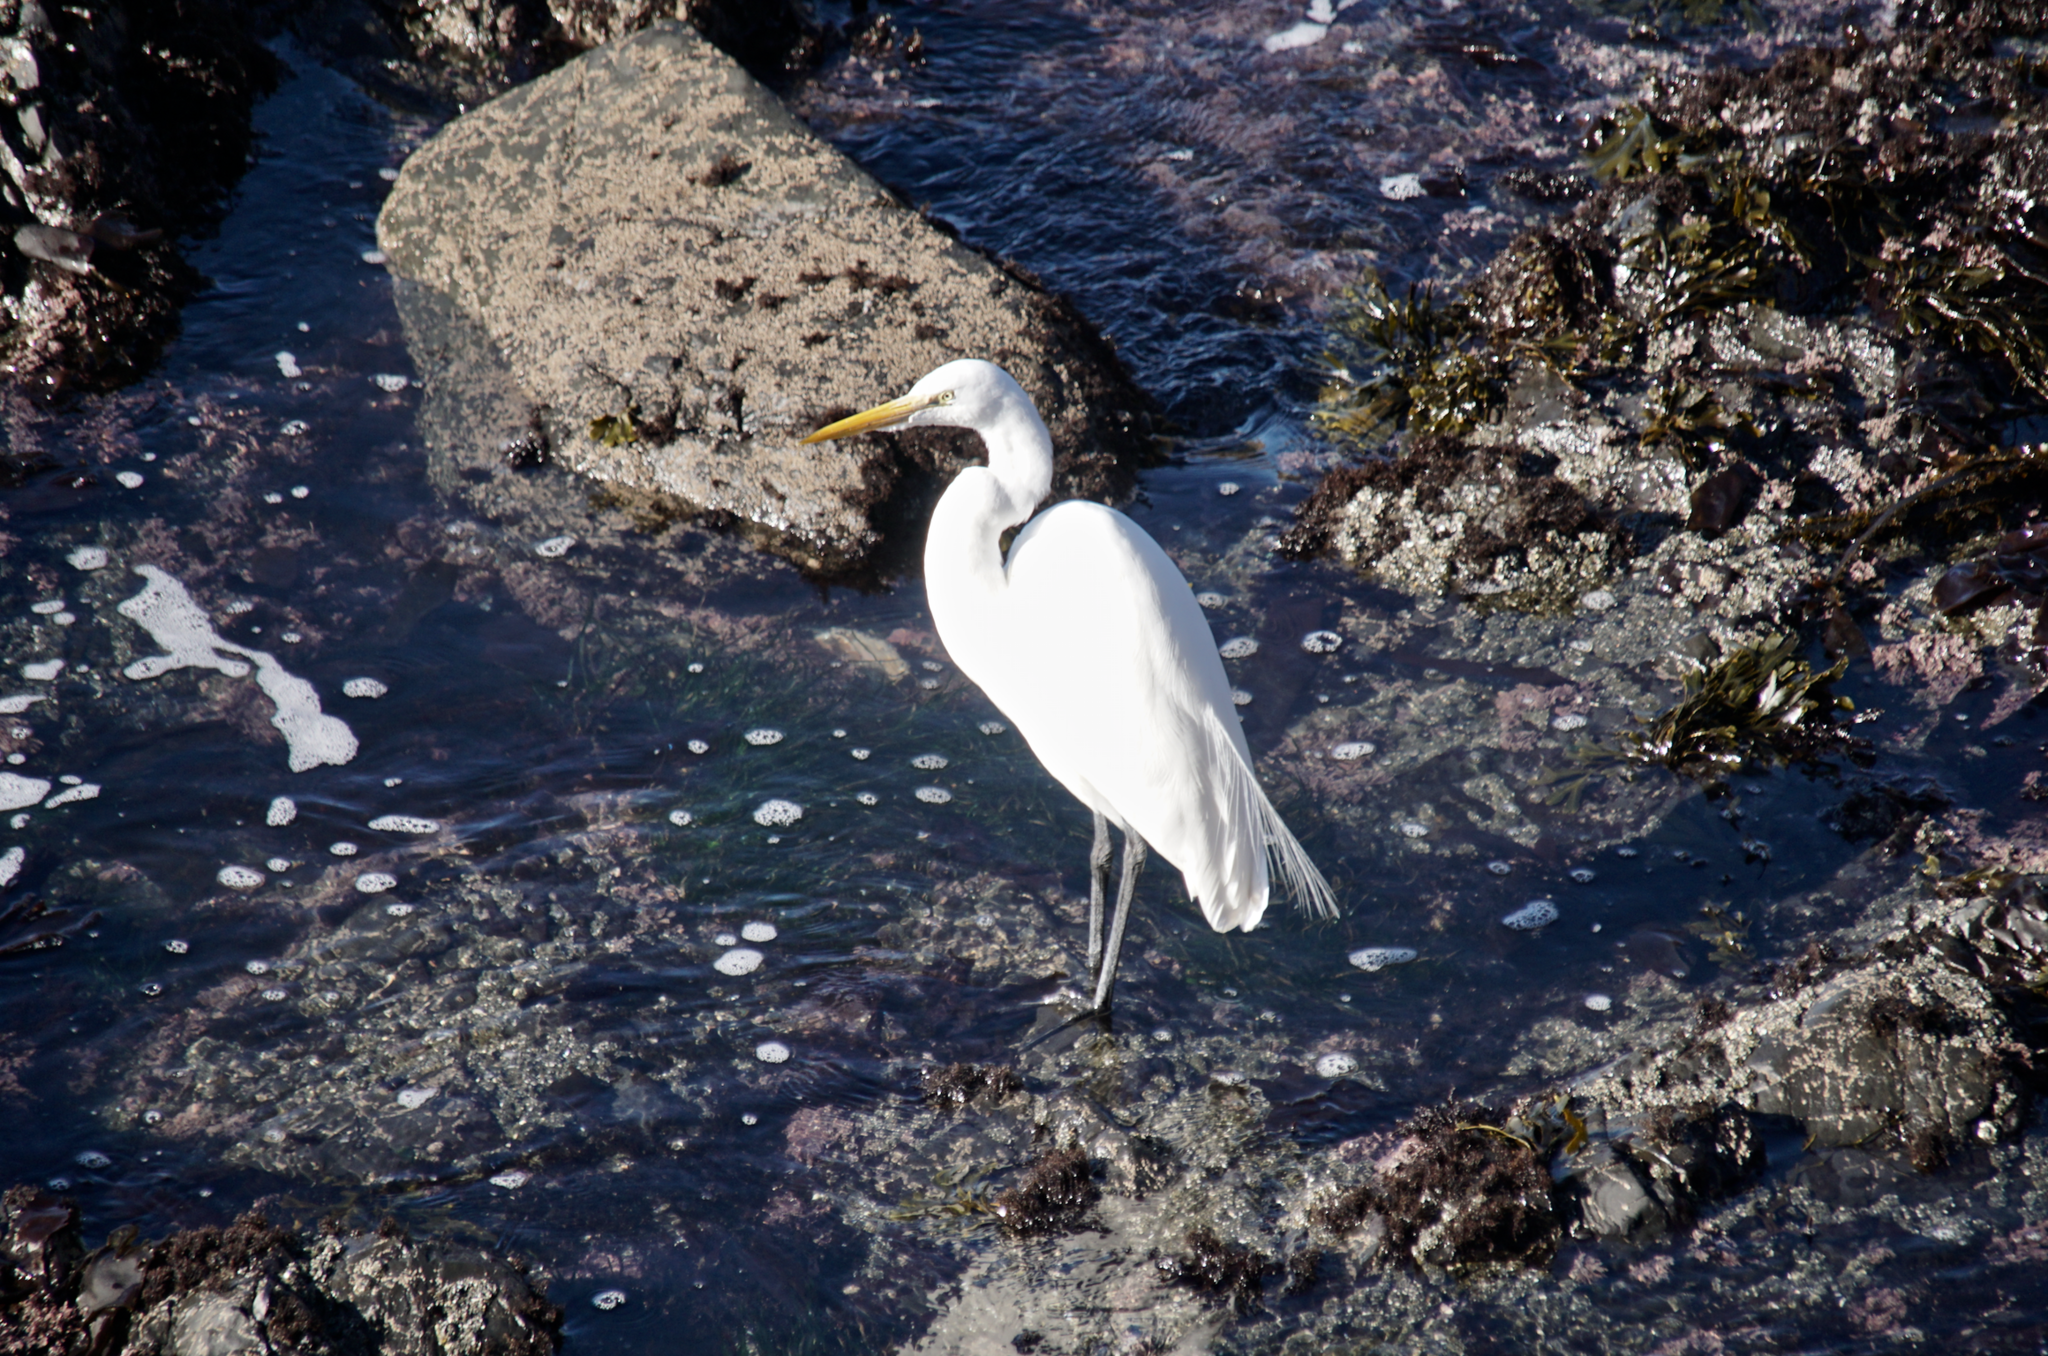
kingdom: Animalia
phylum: Chordata
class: Aves
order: Pelecaniformes
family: Ardeidae
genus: Ardea
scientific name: Ardea alba
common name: Great egret
